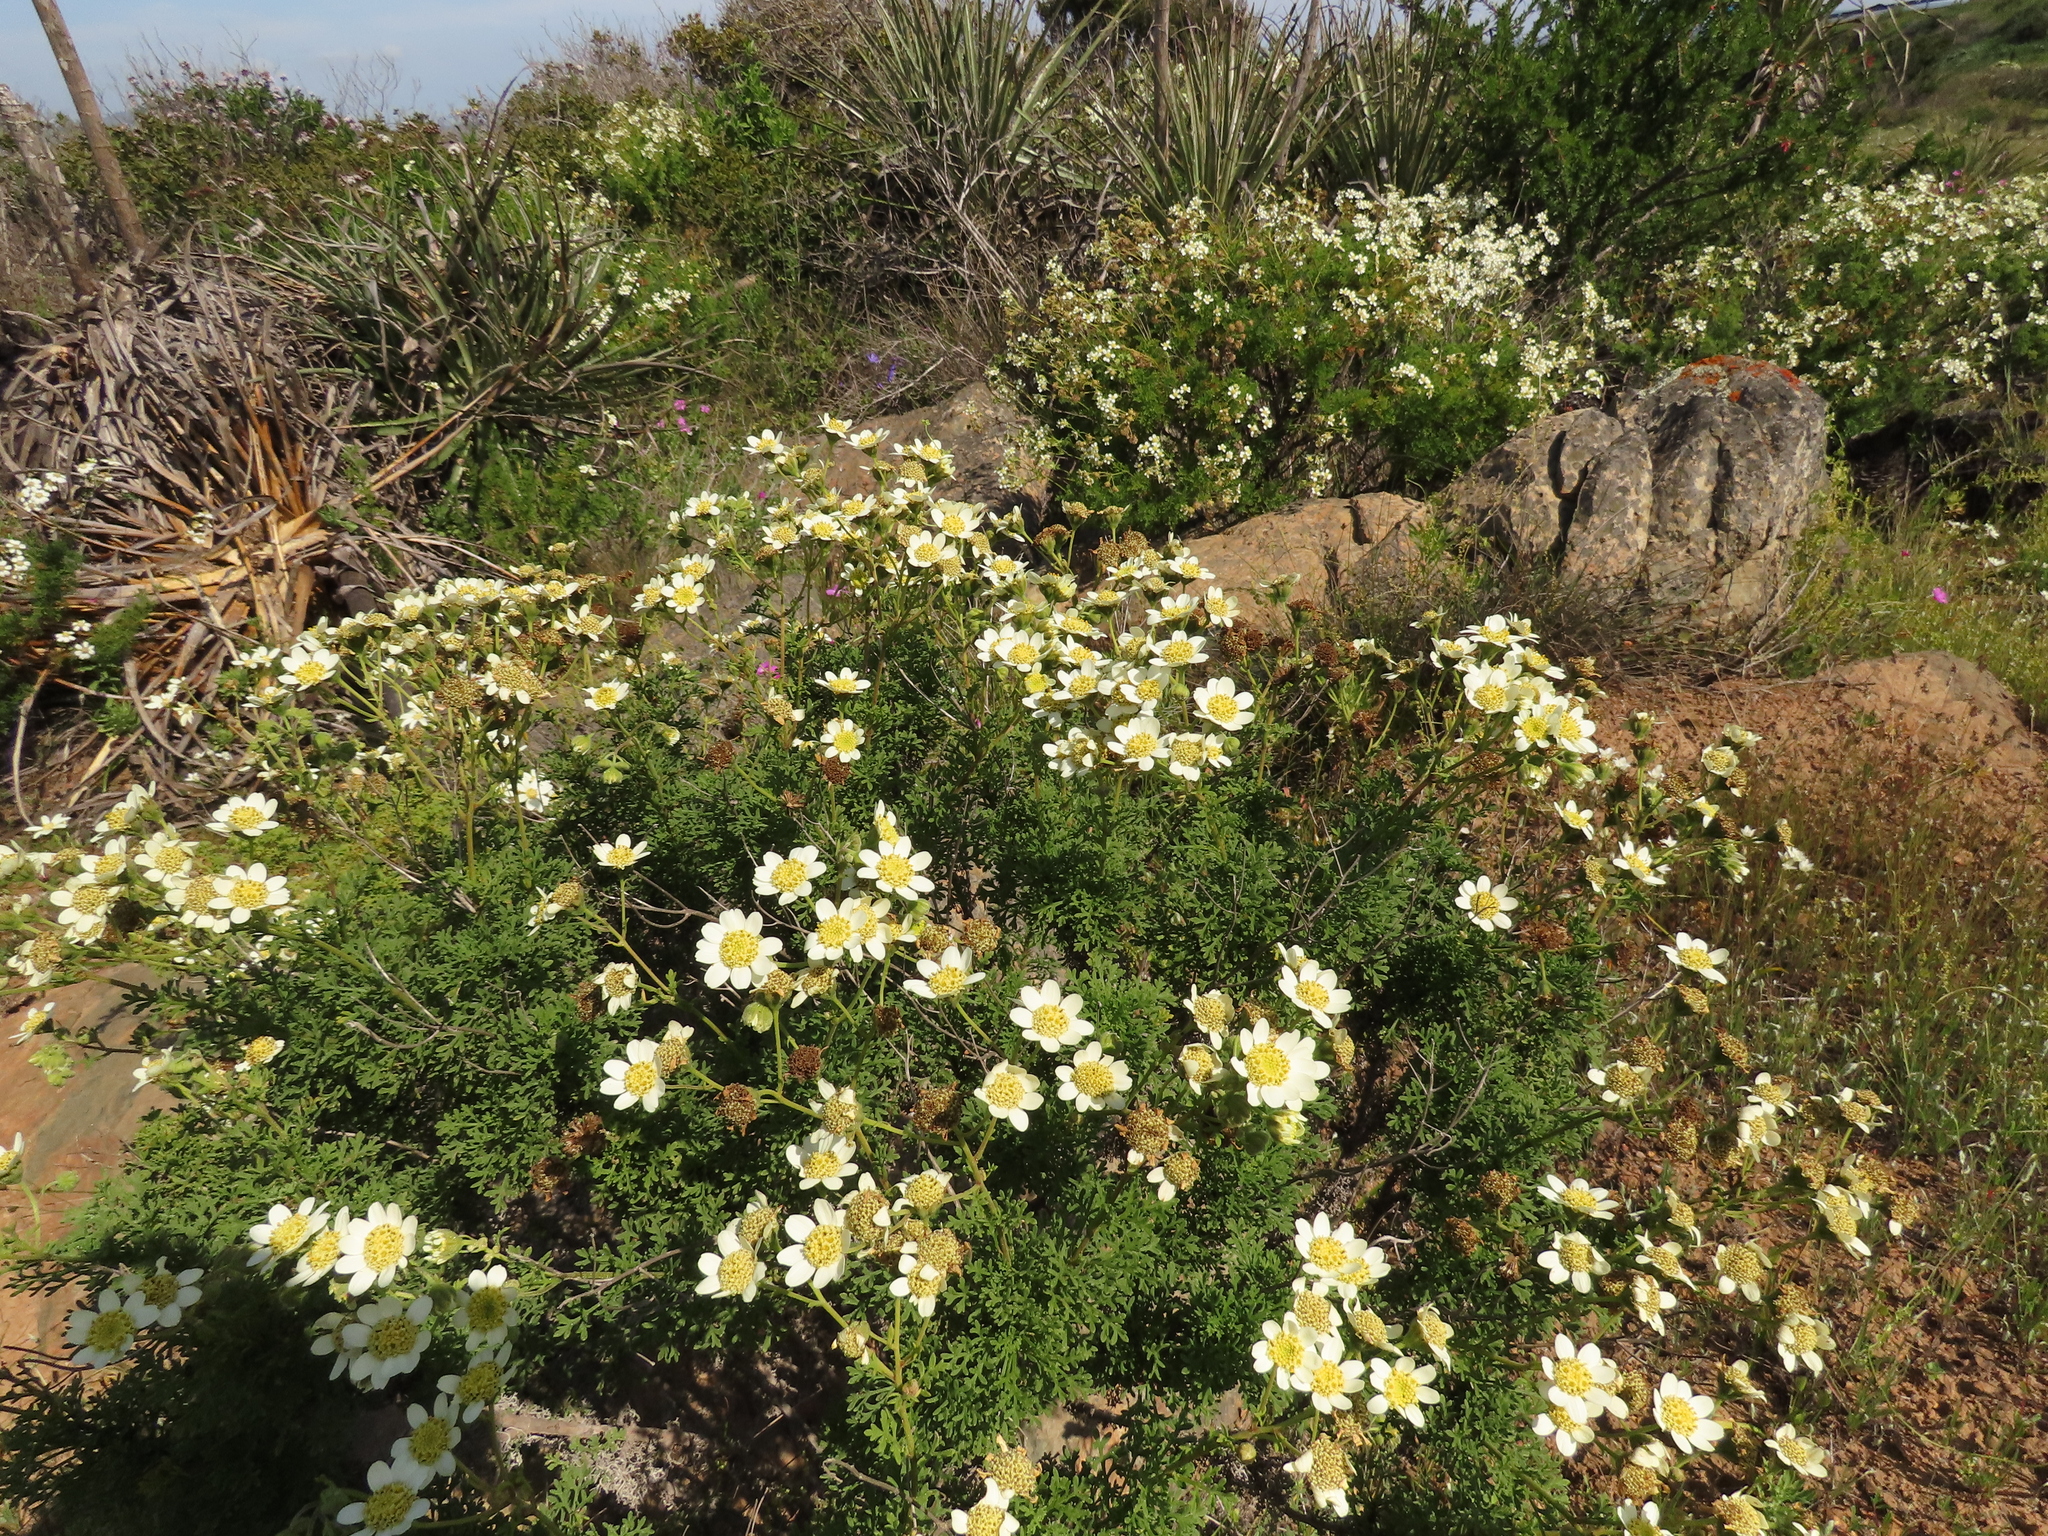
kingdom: Plantae
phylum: Tracheophyta
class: Magnoliopsida
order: Asterales
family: Asteraceae
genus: Bahia
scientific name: Bahia ambrosioides
